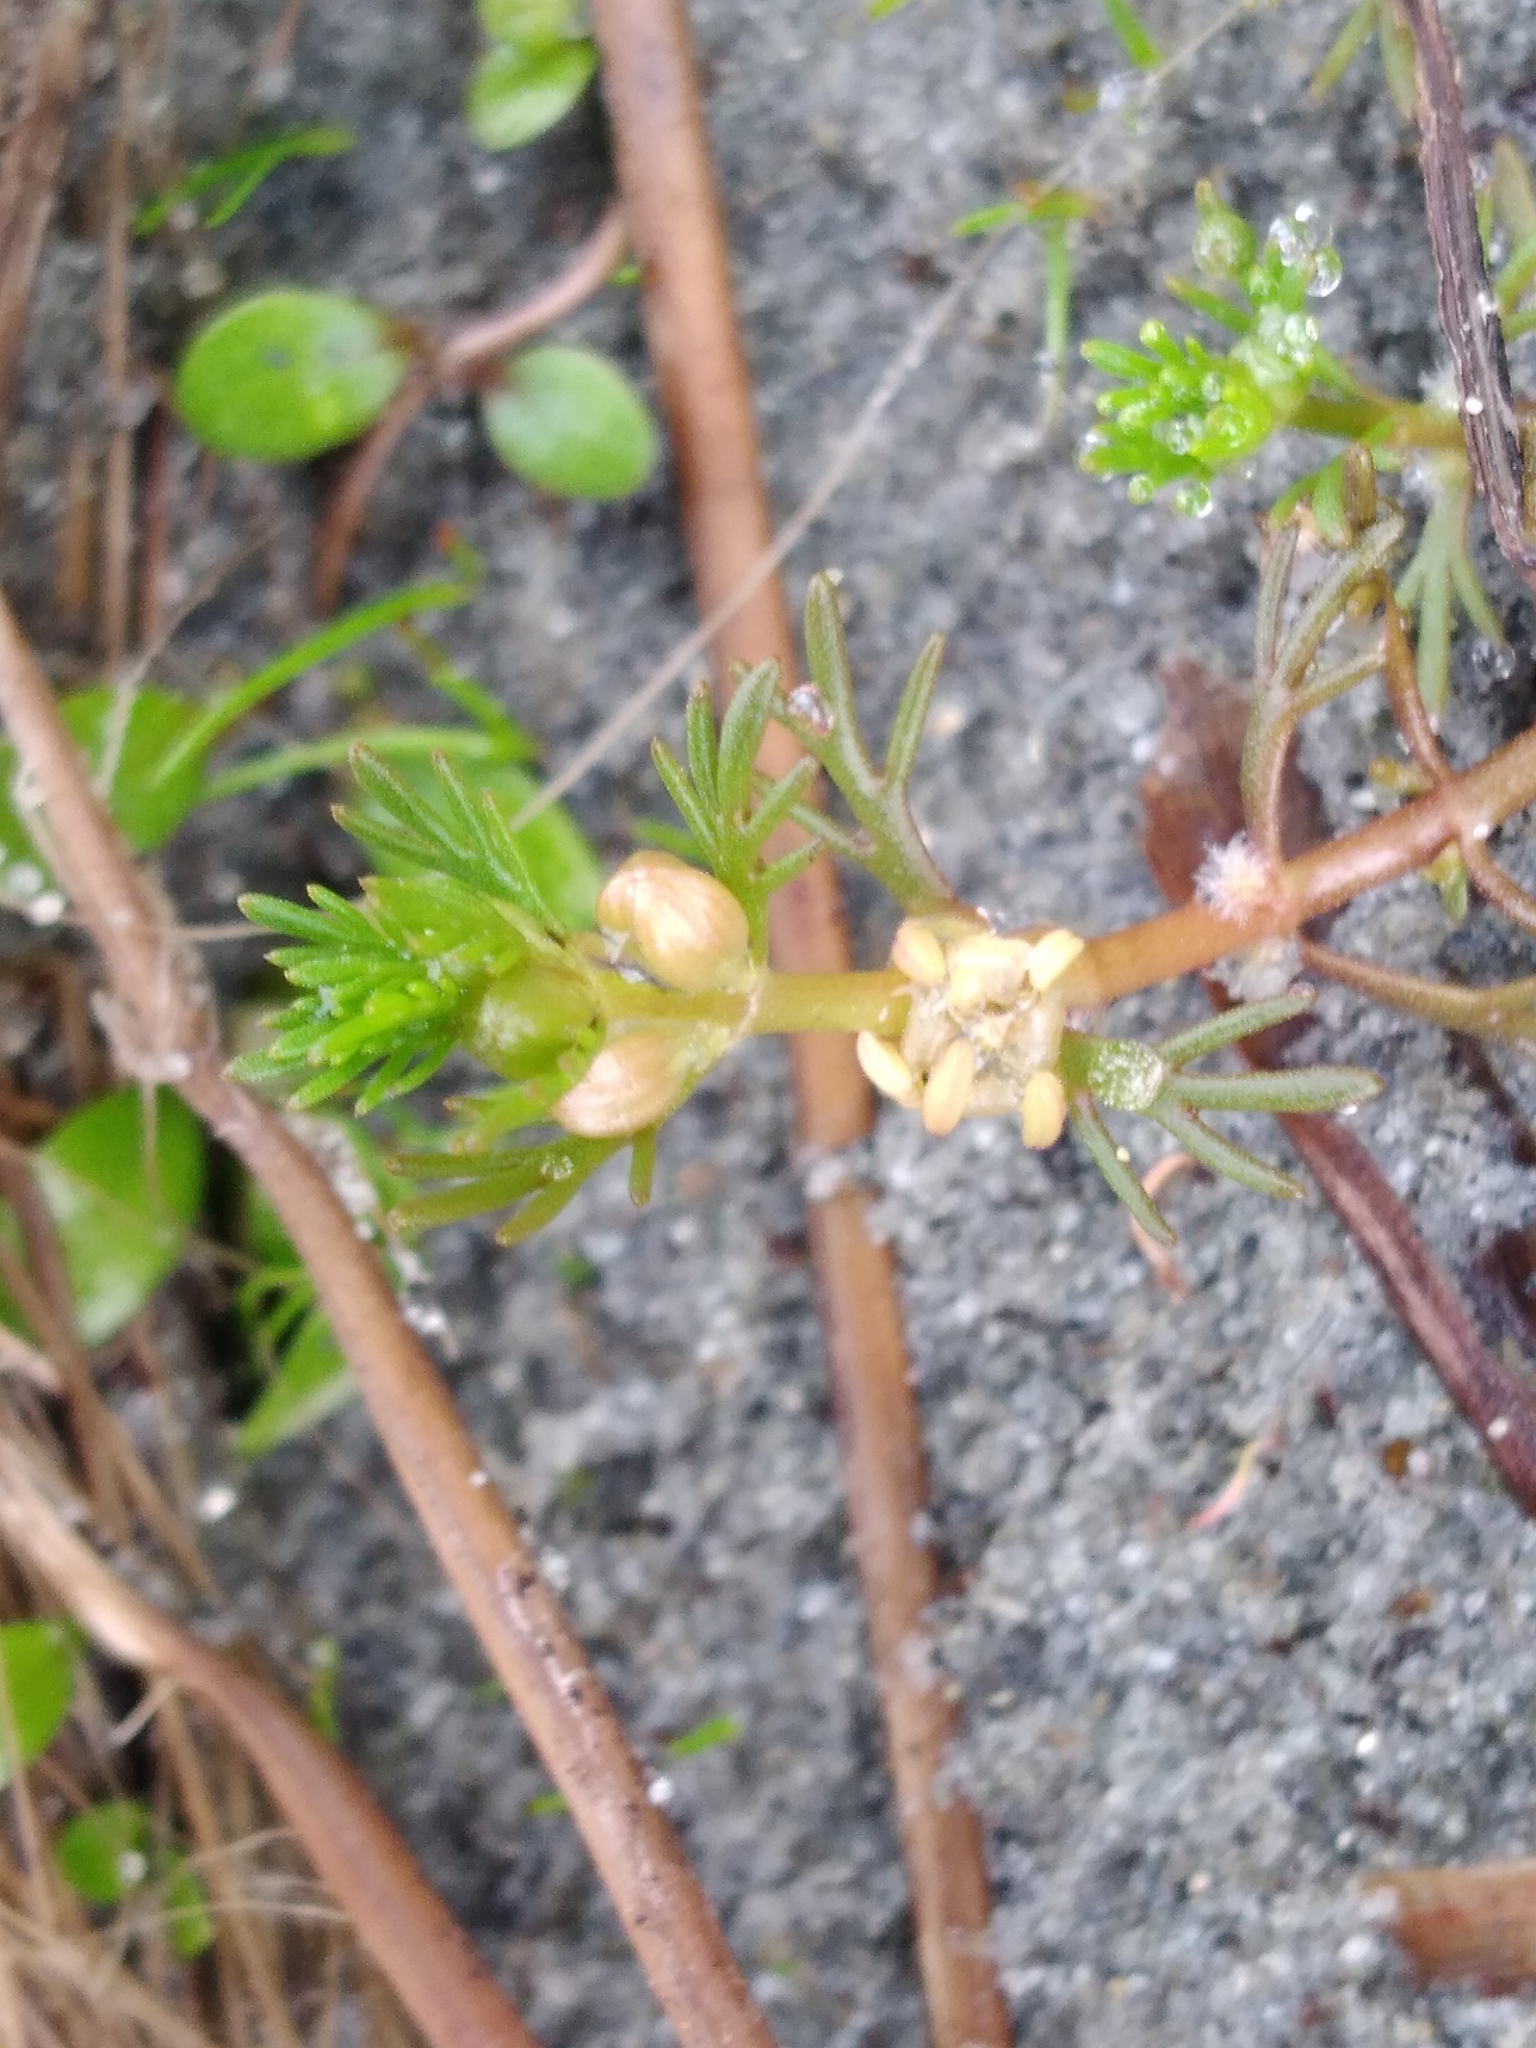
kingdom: Plantae
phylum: Tracheophyta
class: Magnoliopsida
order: Saxifragales
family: Haloragaceae
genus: Myriophyllum
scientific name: Myriophyllum propinquum
